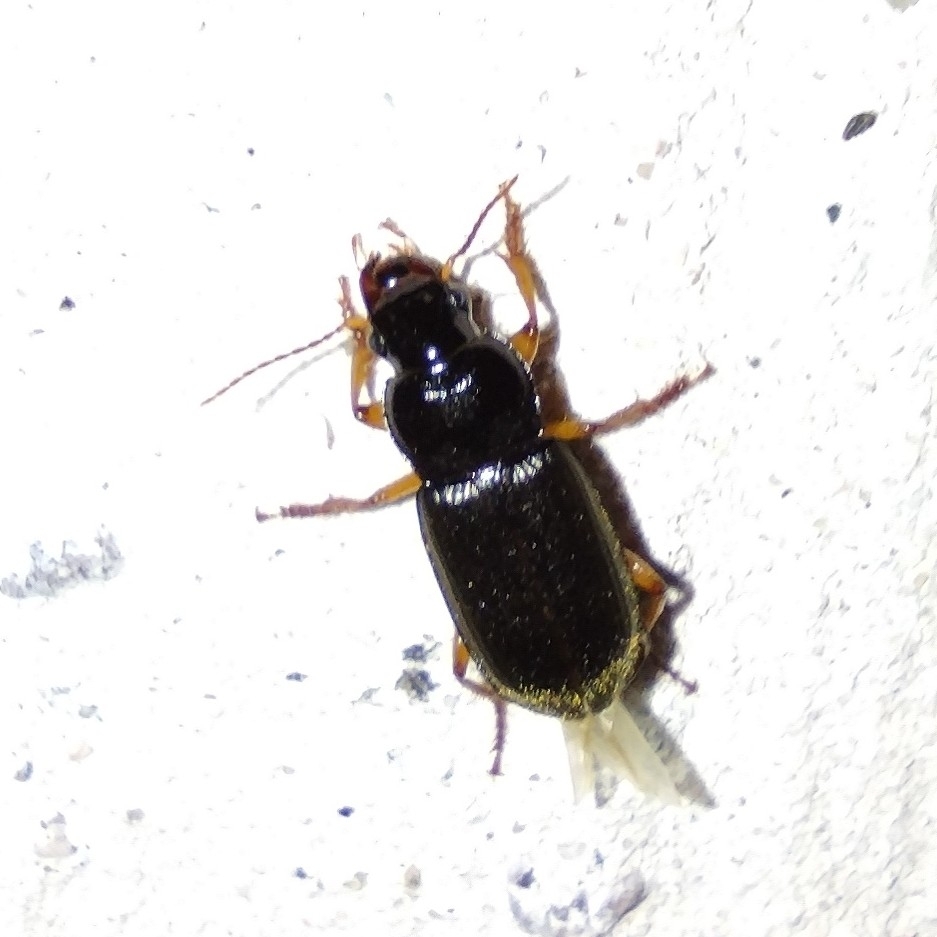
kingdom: Animalia
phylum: Arthropoda
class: Insecta
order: Coleoptera
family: Carabidae
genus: Harpalus
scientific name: Harpalus rufipes
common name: Strawberry harp ground beetle
